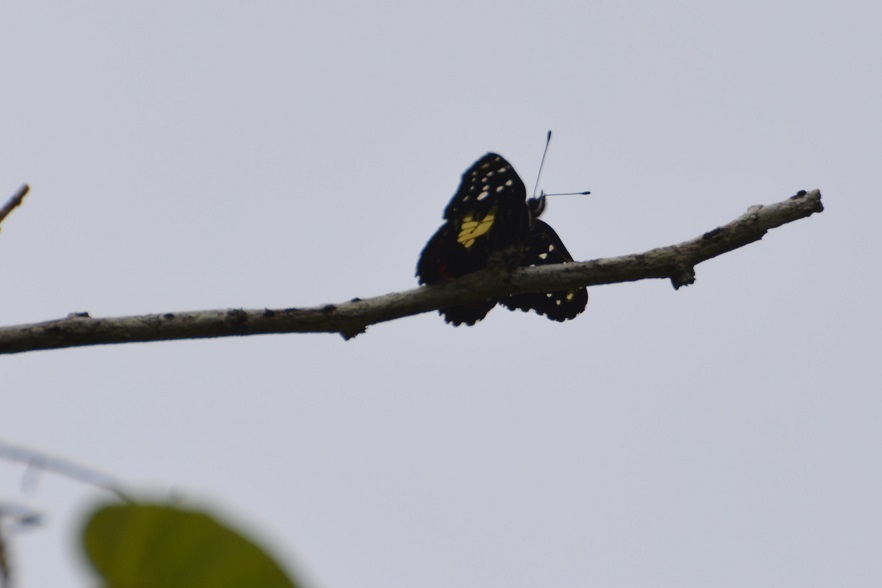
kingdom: Animalia
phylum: Arthropoda
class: Insecta
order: Lepidoptera
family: Nymphalidae
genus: Chlosyne
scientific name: Chlosyne erodyle
